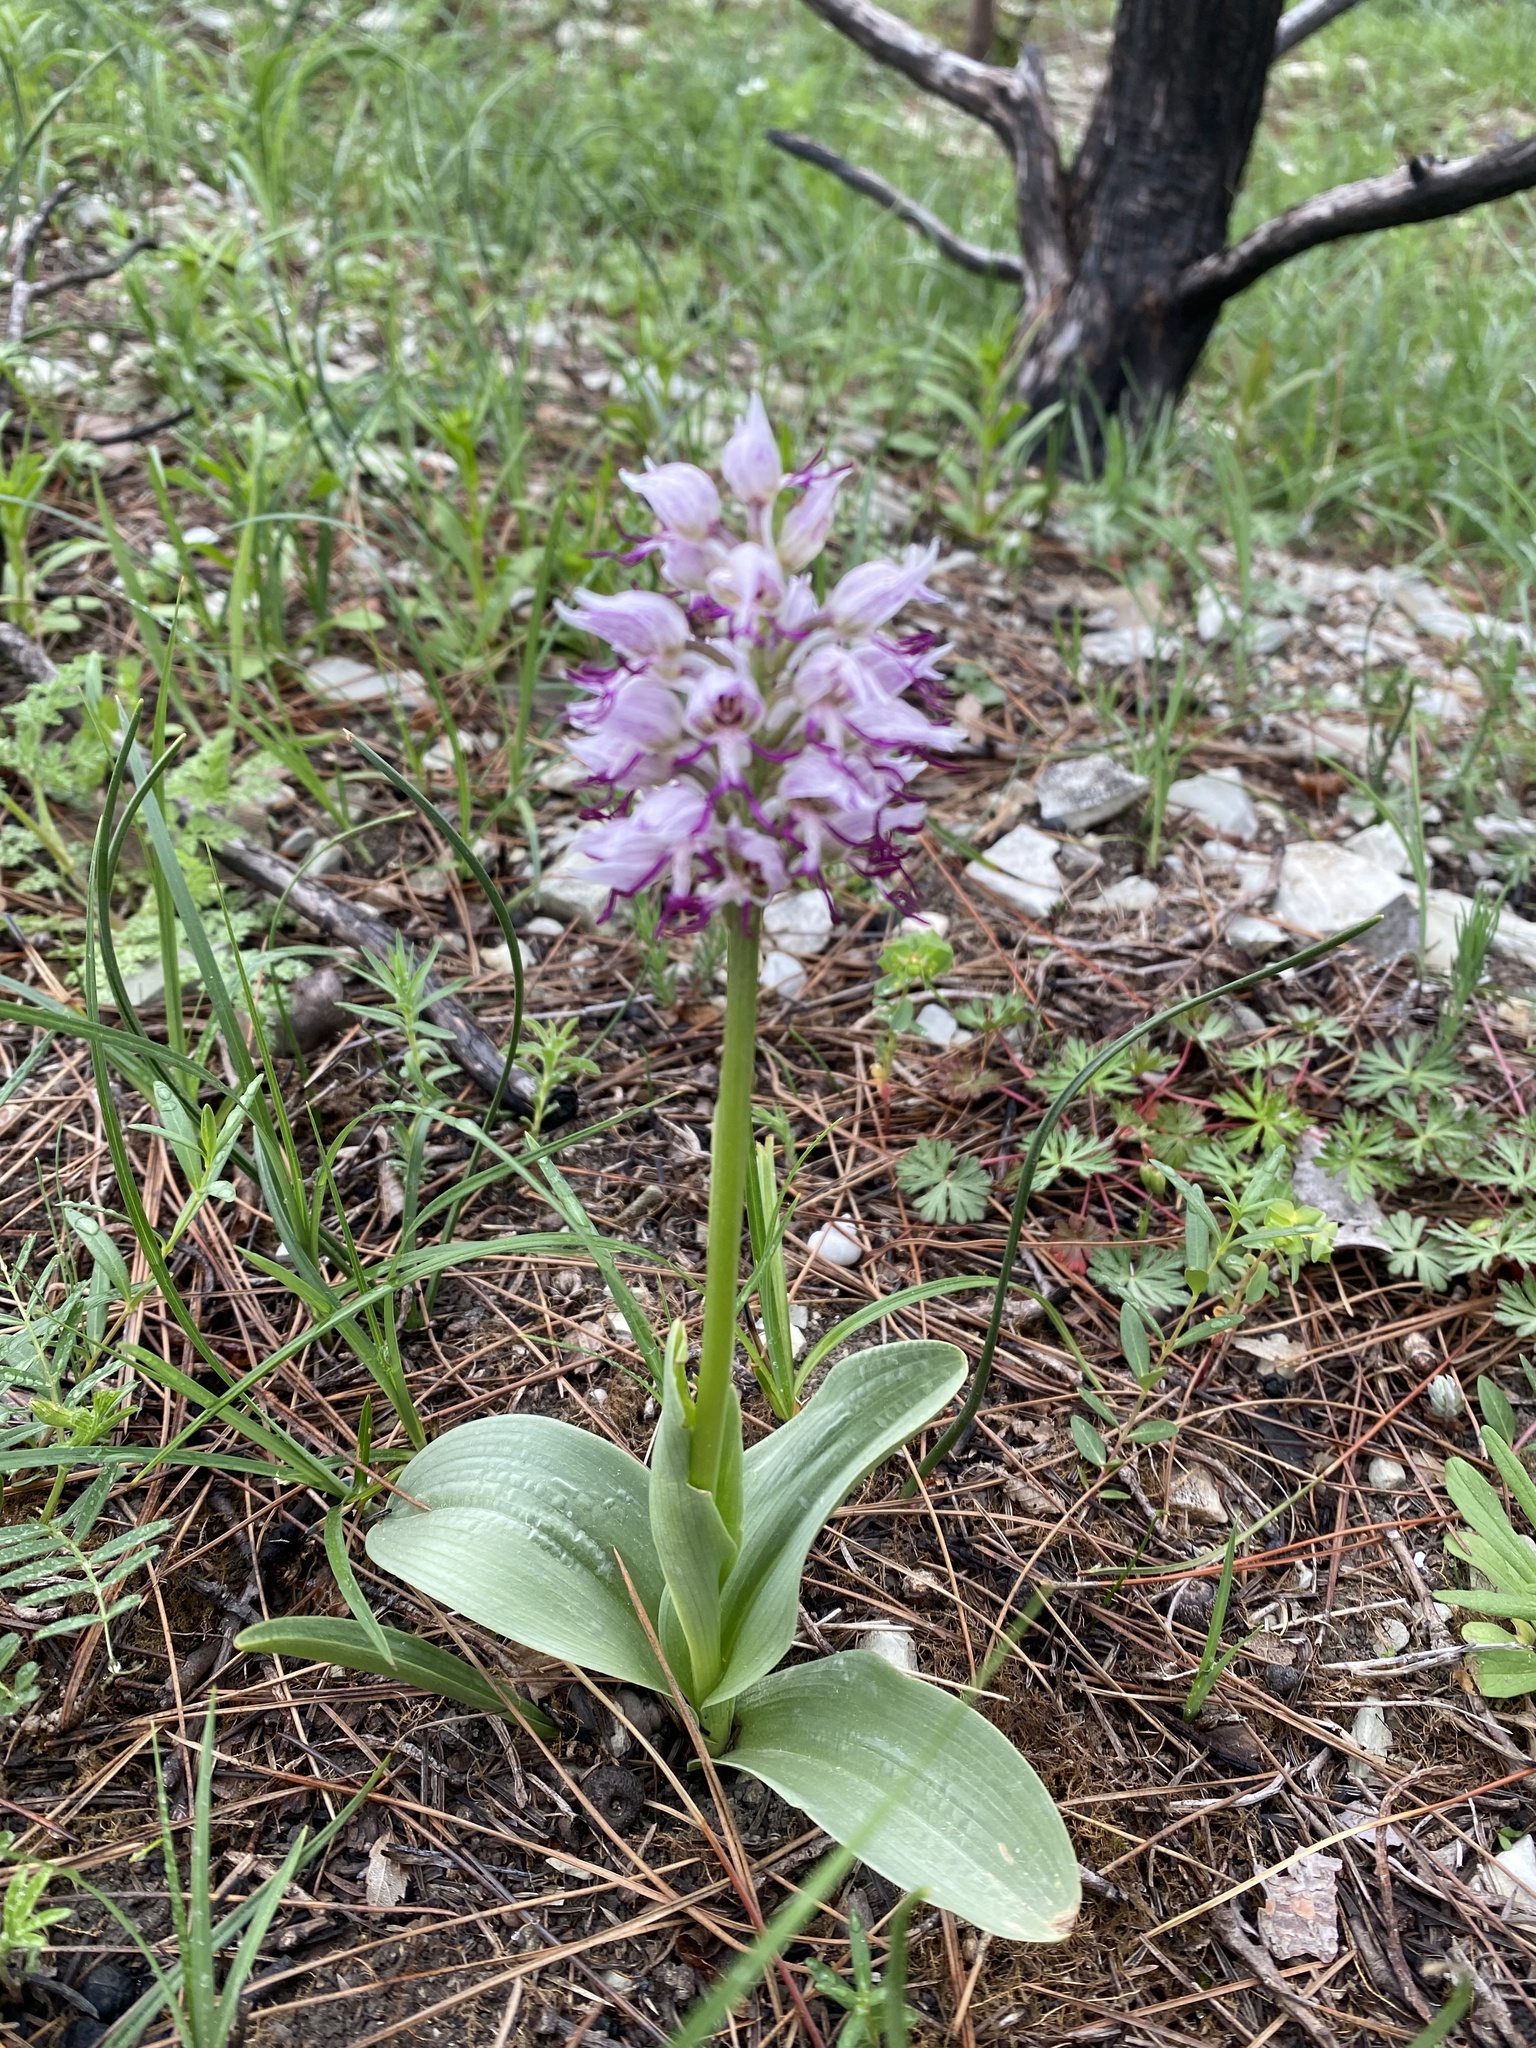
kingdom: Plantae
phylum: Tracheophyta
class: Liliopsida
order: Asparagales
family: Orchidaceae
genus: Orchis
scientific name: Orchis simia
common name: Monkey orchid
